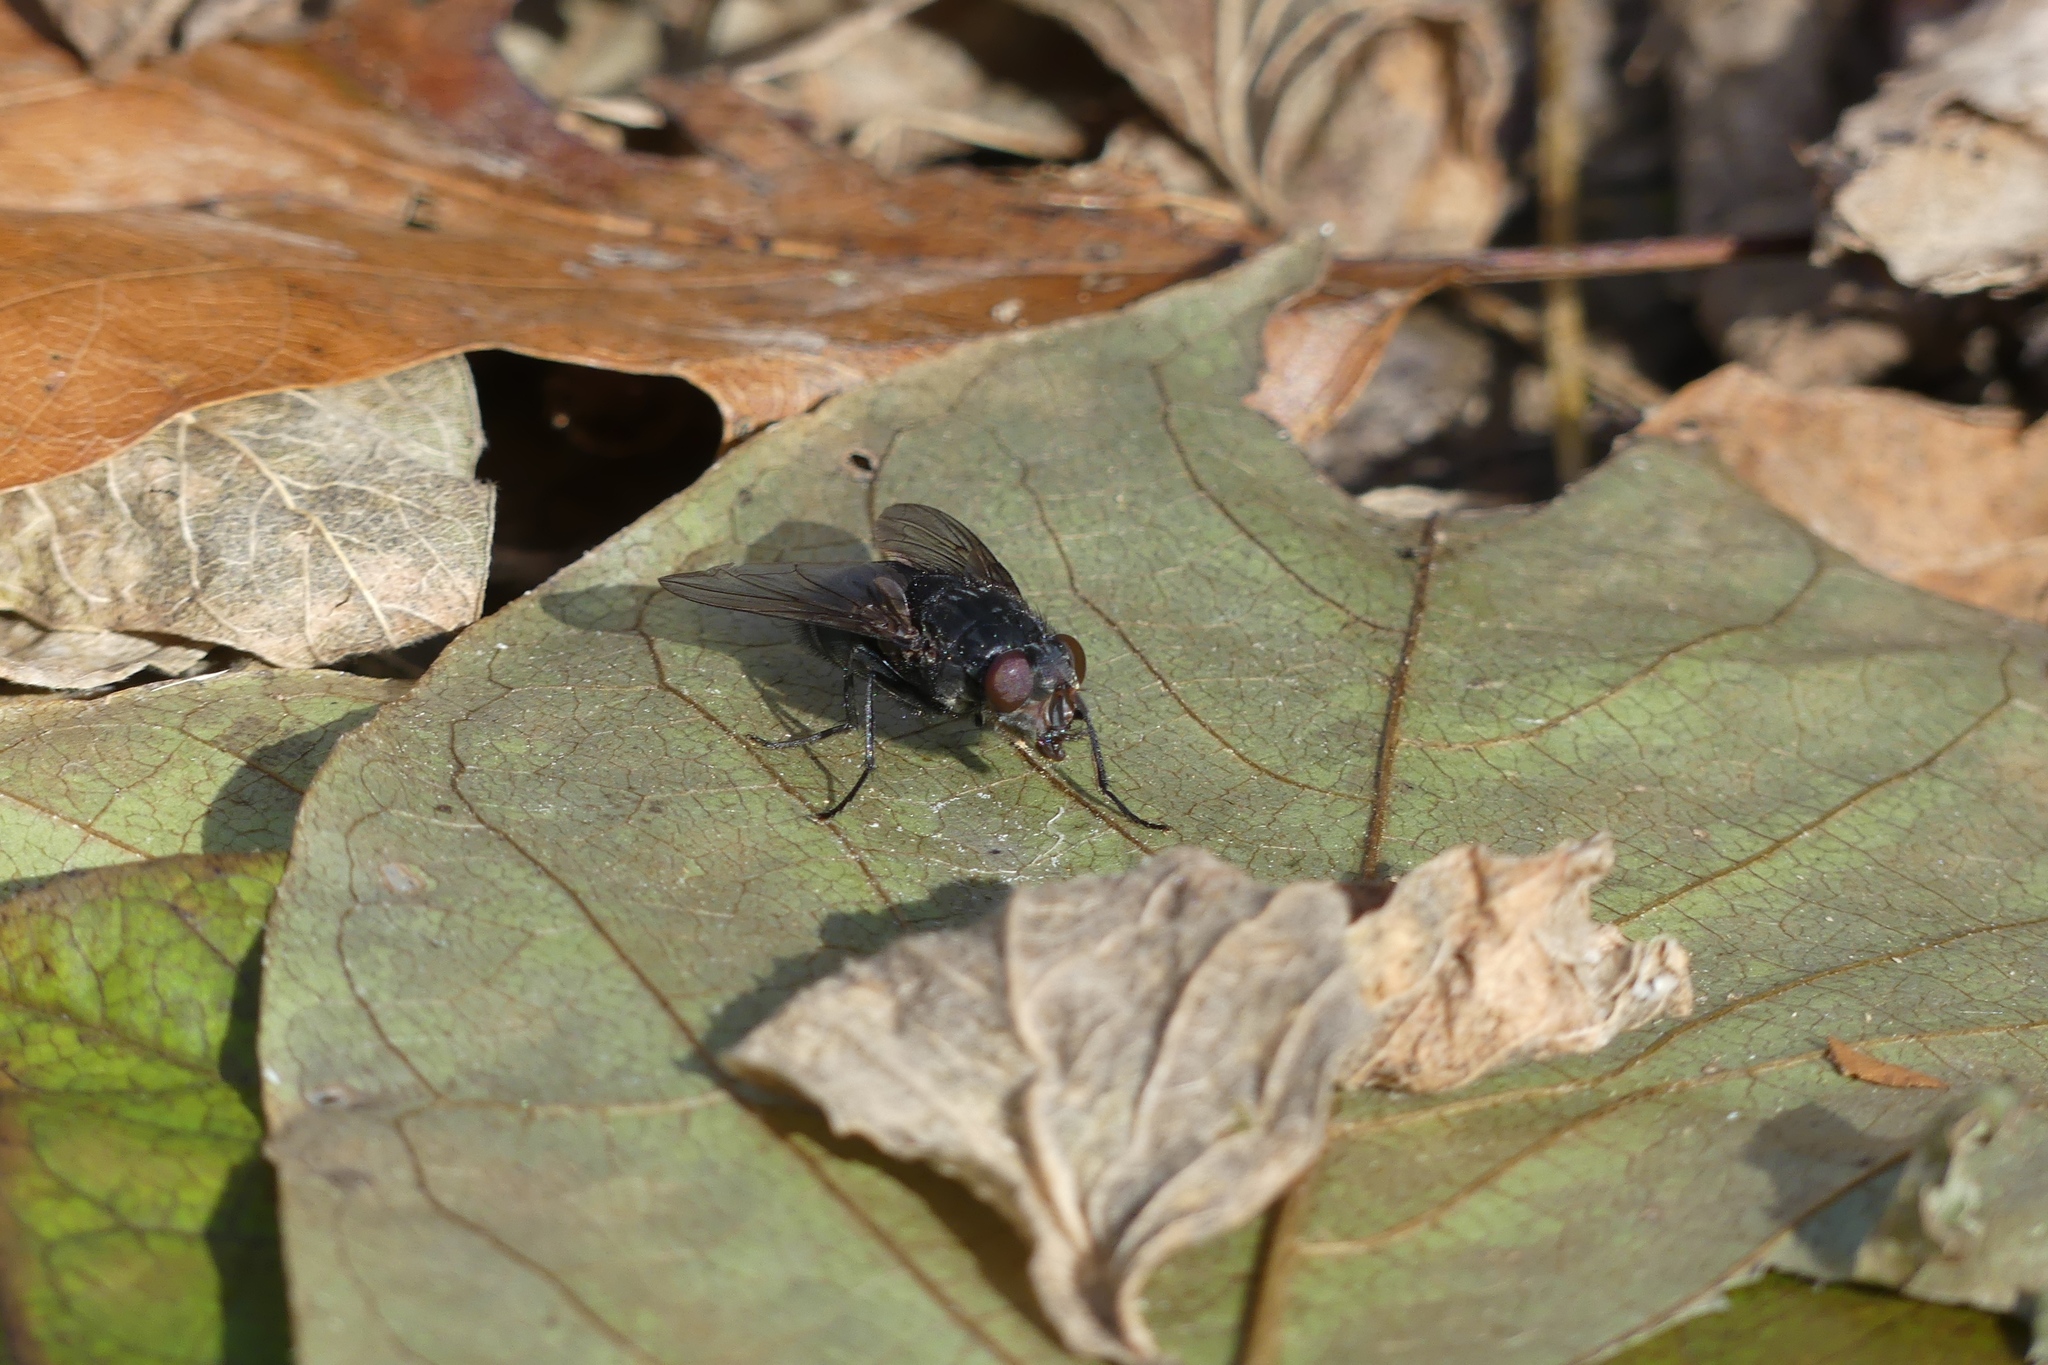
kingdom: Animalia
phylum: Arthropoda
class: Insecta
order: Diptera
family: Calliphoridae
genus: Calliphora
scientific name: Calliphora vomitoria
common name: Blue bottle fly
